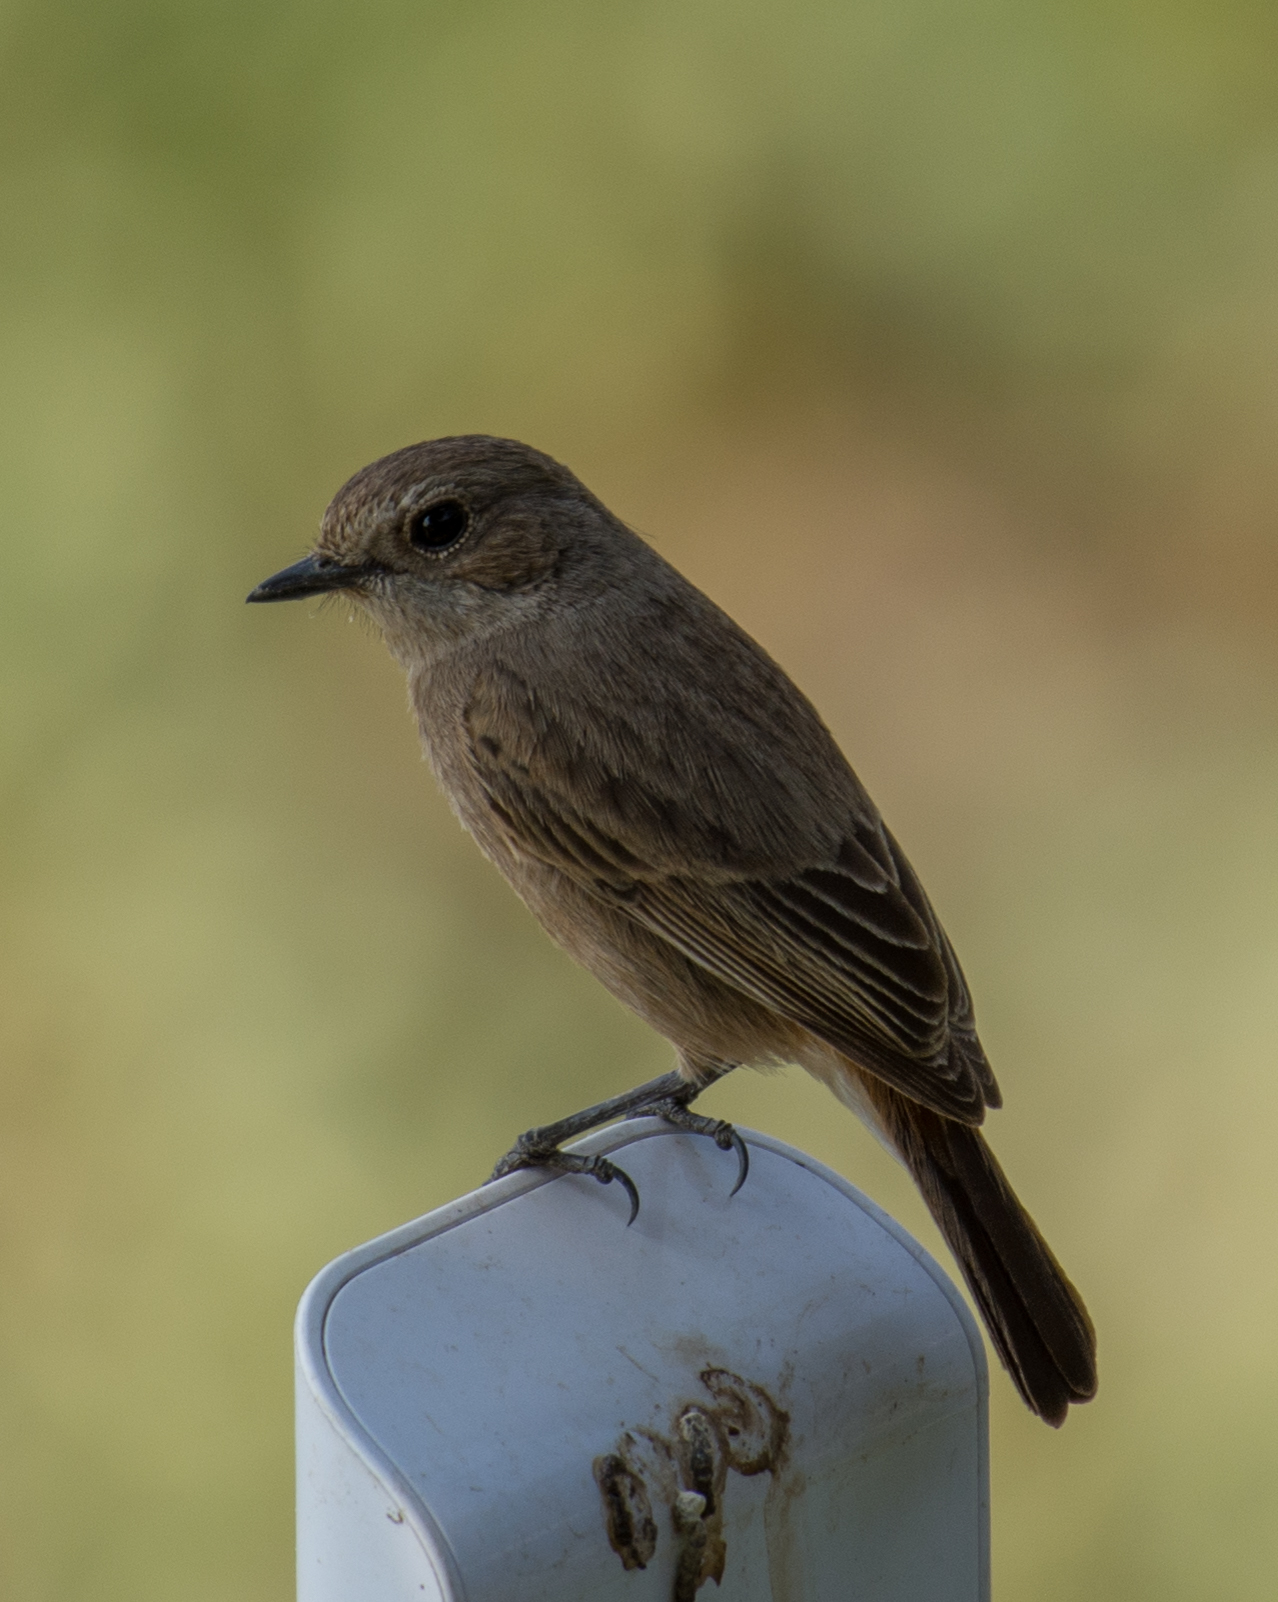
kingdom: Animalia
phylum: Chordata
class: Aves
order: Passeriformes
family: Muscicapidae
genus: Saxicola
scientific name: Saxicola caprata
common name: Pied bush chat
